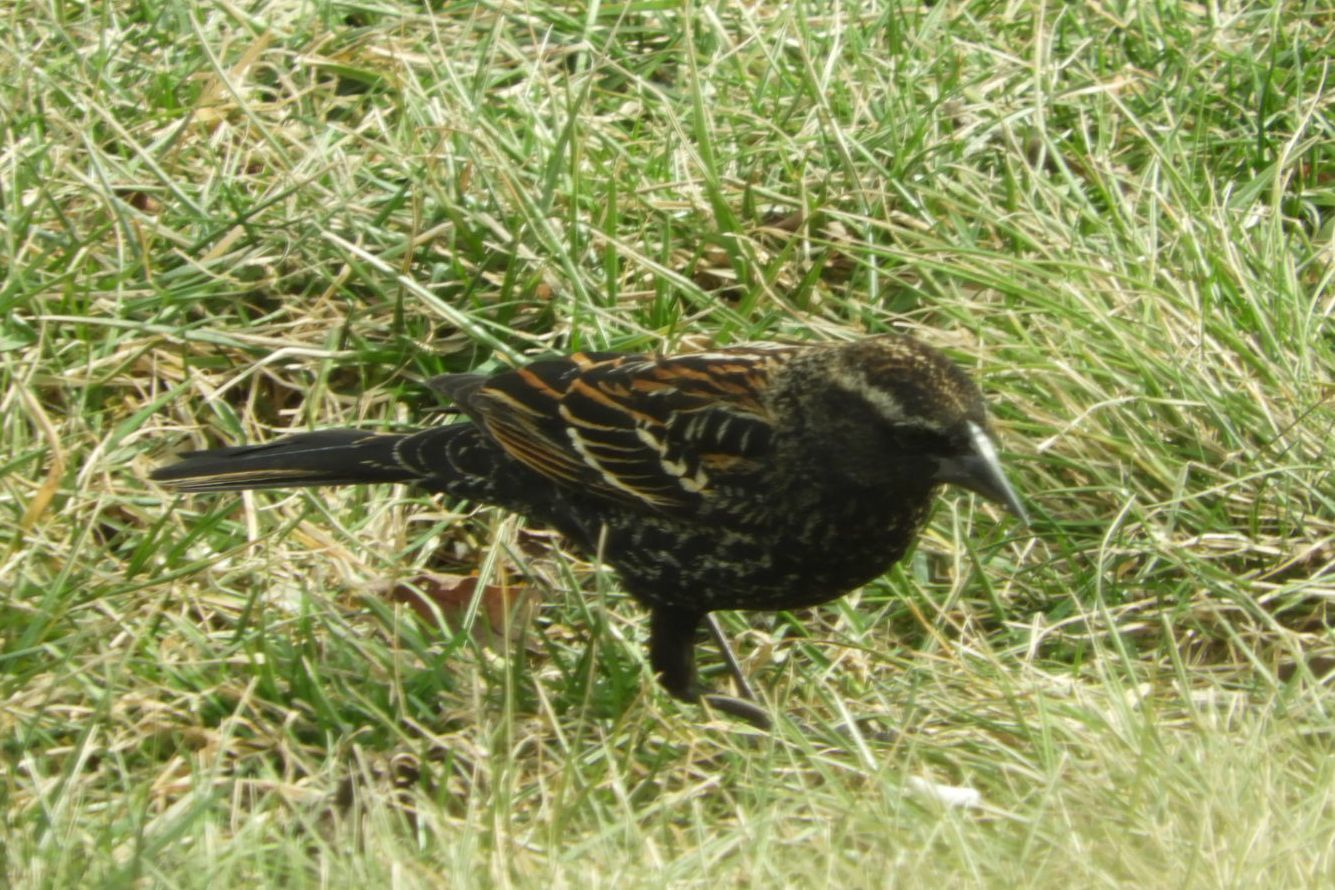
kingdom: Animalia
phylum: Chordata
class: Aves
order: Passeriformes
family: Icteridae
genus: Agelaius
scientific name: Agelaius phoeniceus
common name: Red-winged blackbird
